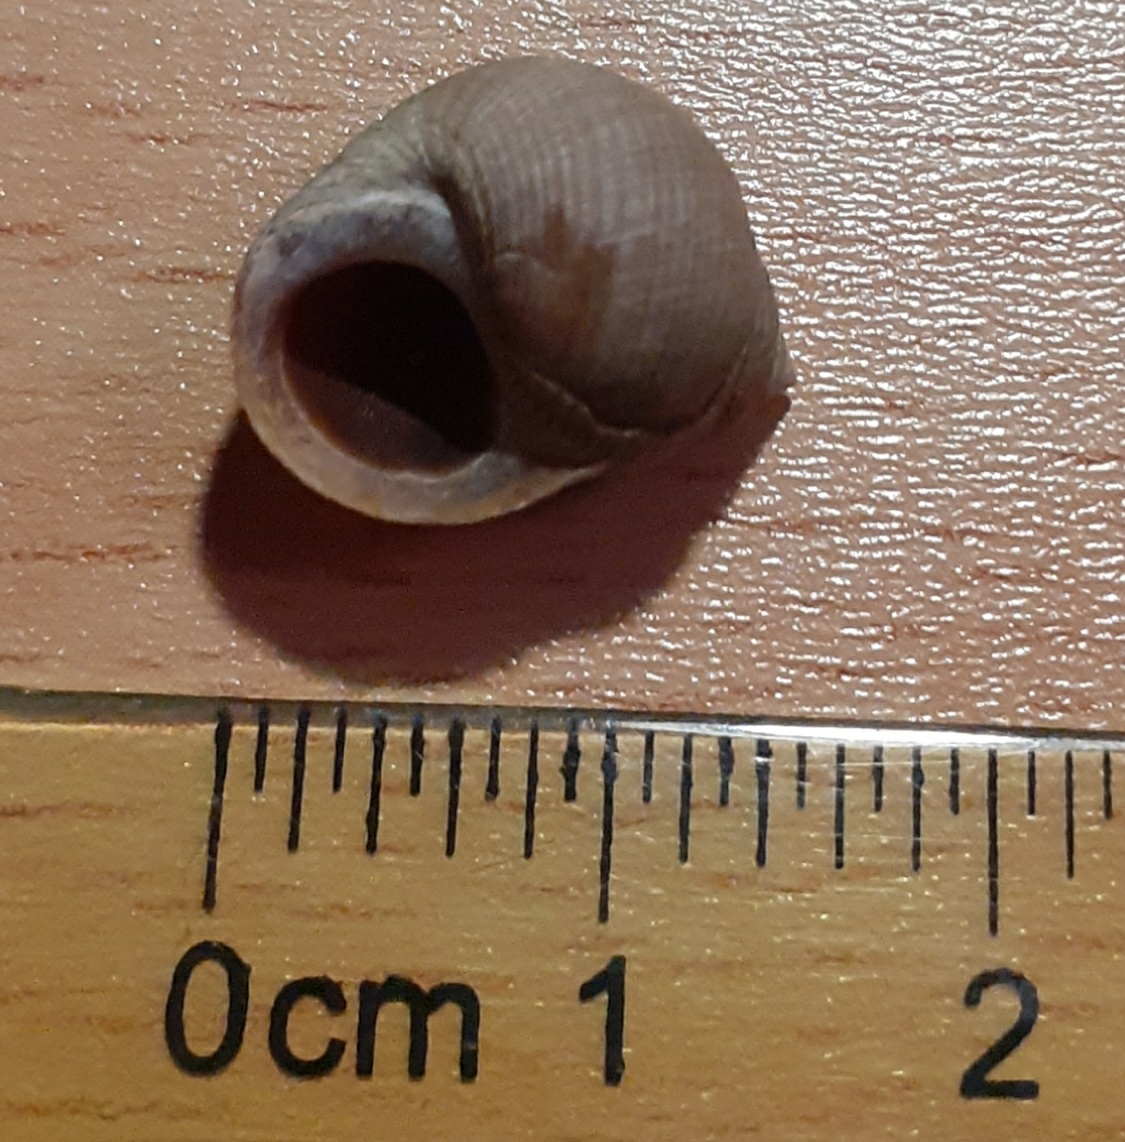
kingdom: Animalia
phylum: Mollusca
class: Gastropoda
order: Littorinimorpha
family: Littorinidae
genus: Littorina
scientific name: Littorina littorea
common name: Common periwinkle
